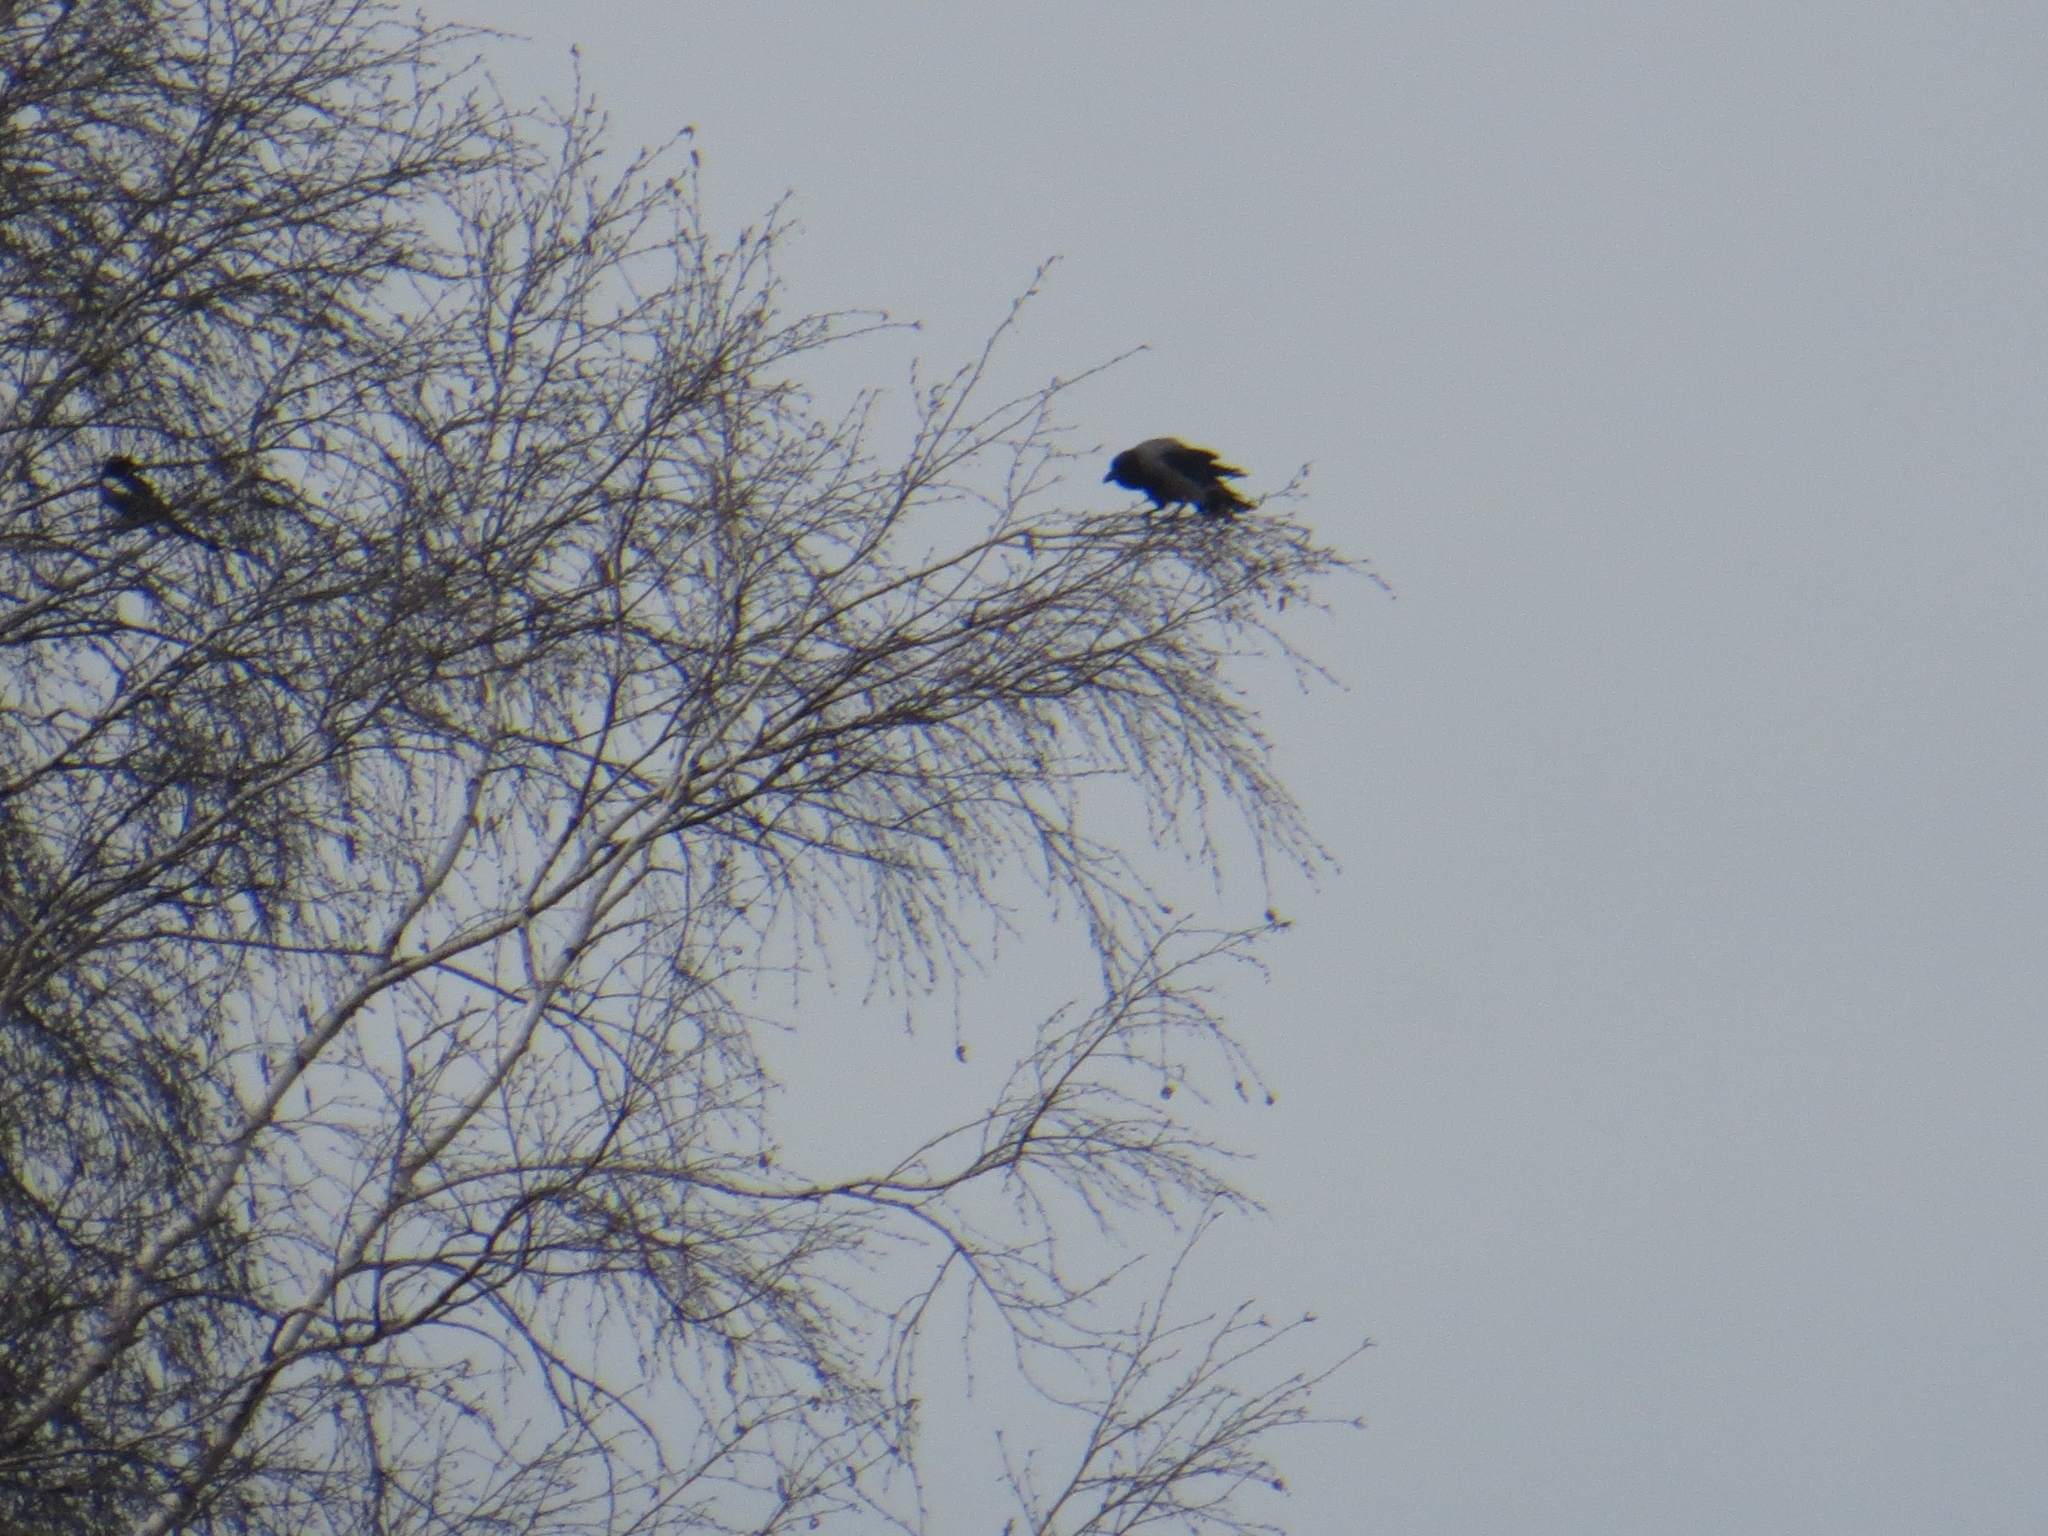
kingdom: Animalia
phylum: Chordata
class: Aves
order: Passeriformes
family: Corvidae
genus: Corvus
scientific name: Corvus cornix
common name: Hooded crow
